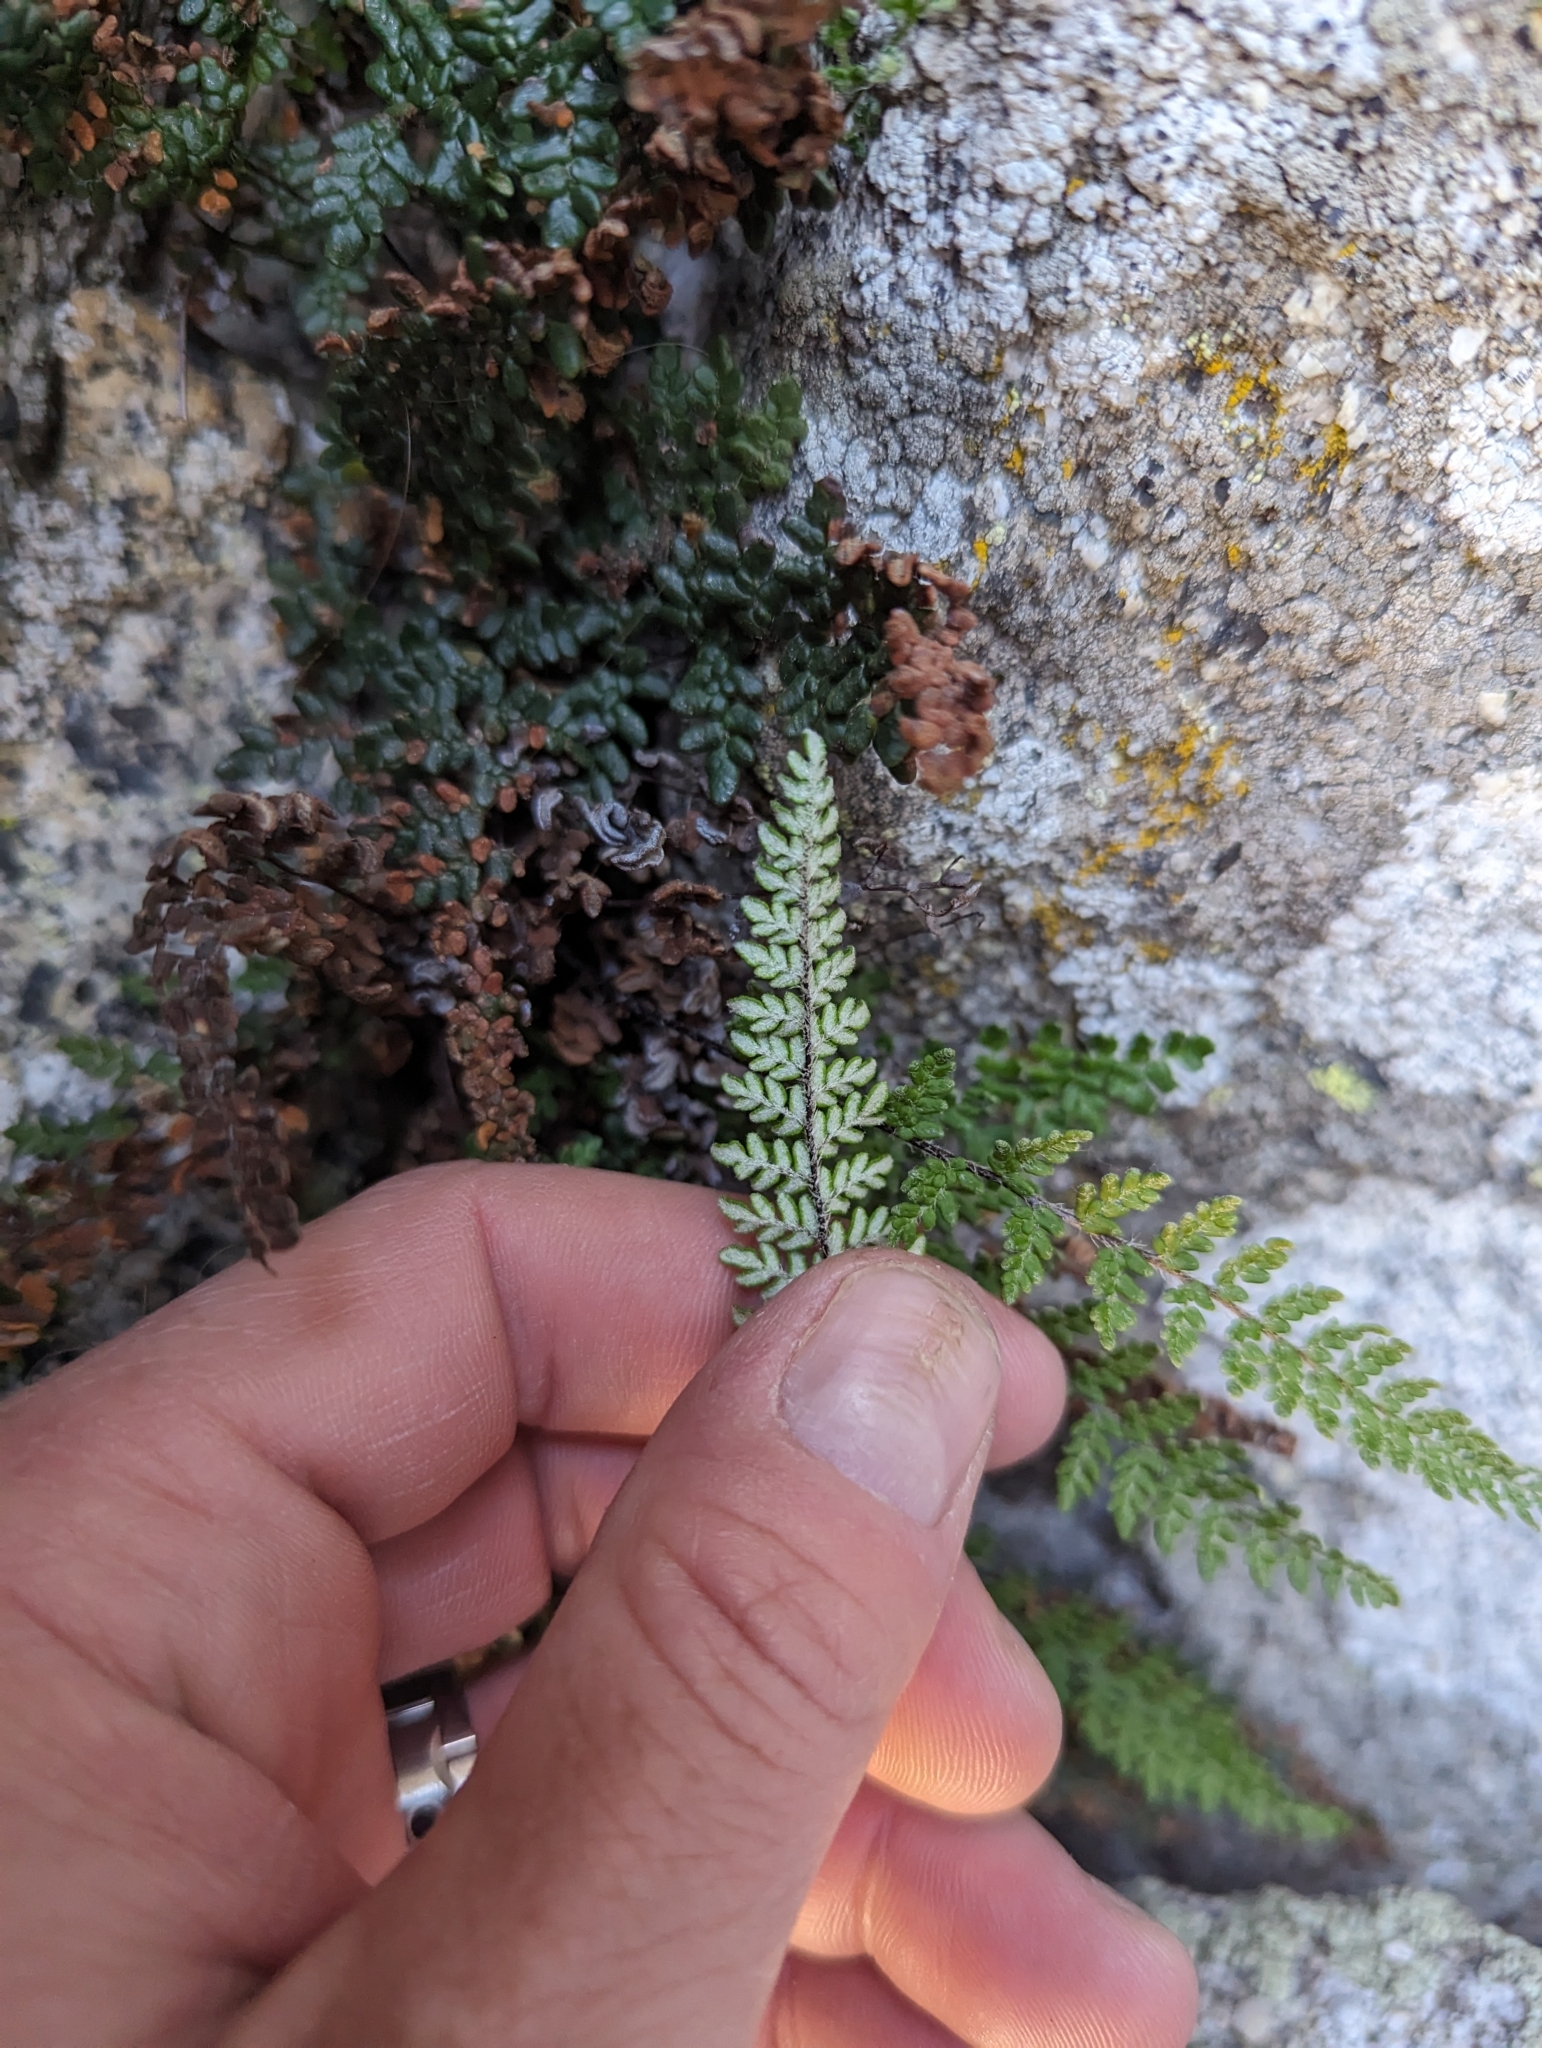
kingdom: Plantae
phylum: Tracheophyta
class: Polypodiopsida
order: Polypodiales
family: Pteridaceae
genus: Myriopteris
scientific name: Myriopteris gracillima
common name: Lace fern
